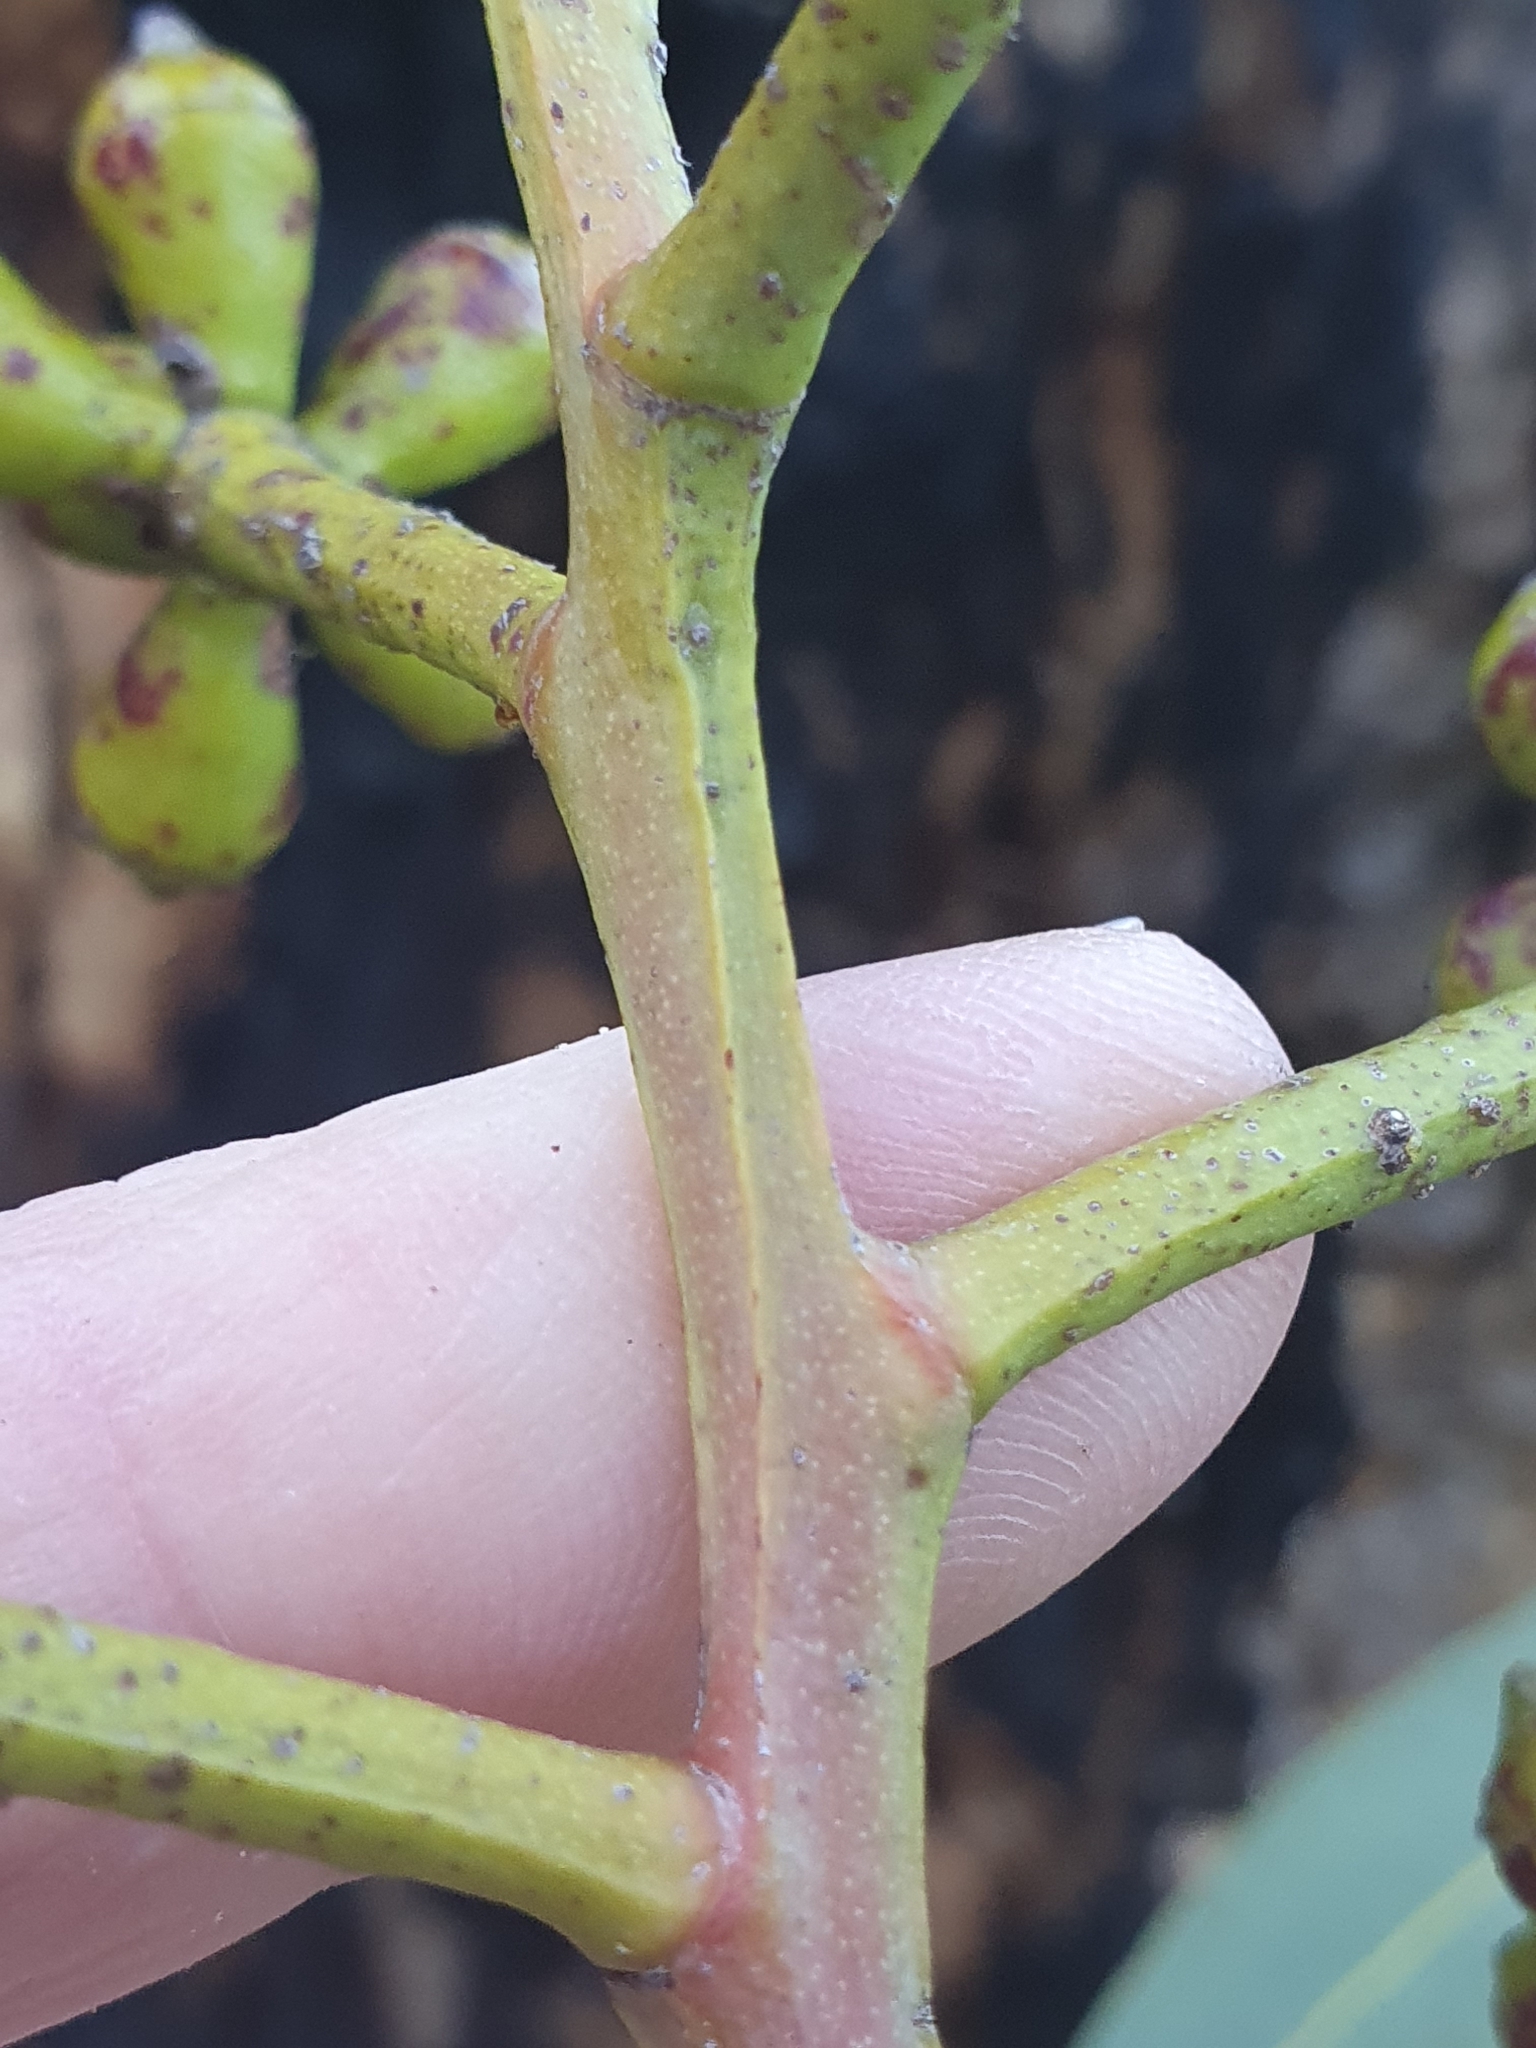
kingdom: Plantae
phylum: Tracheophyta
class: Magnoliopsida
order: Myrtales
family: Myrtaceae
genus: Corymbia
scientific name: Corymbia eximia
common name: Yellow bloodwood
